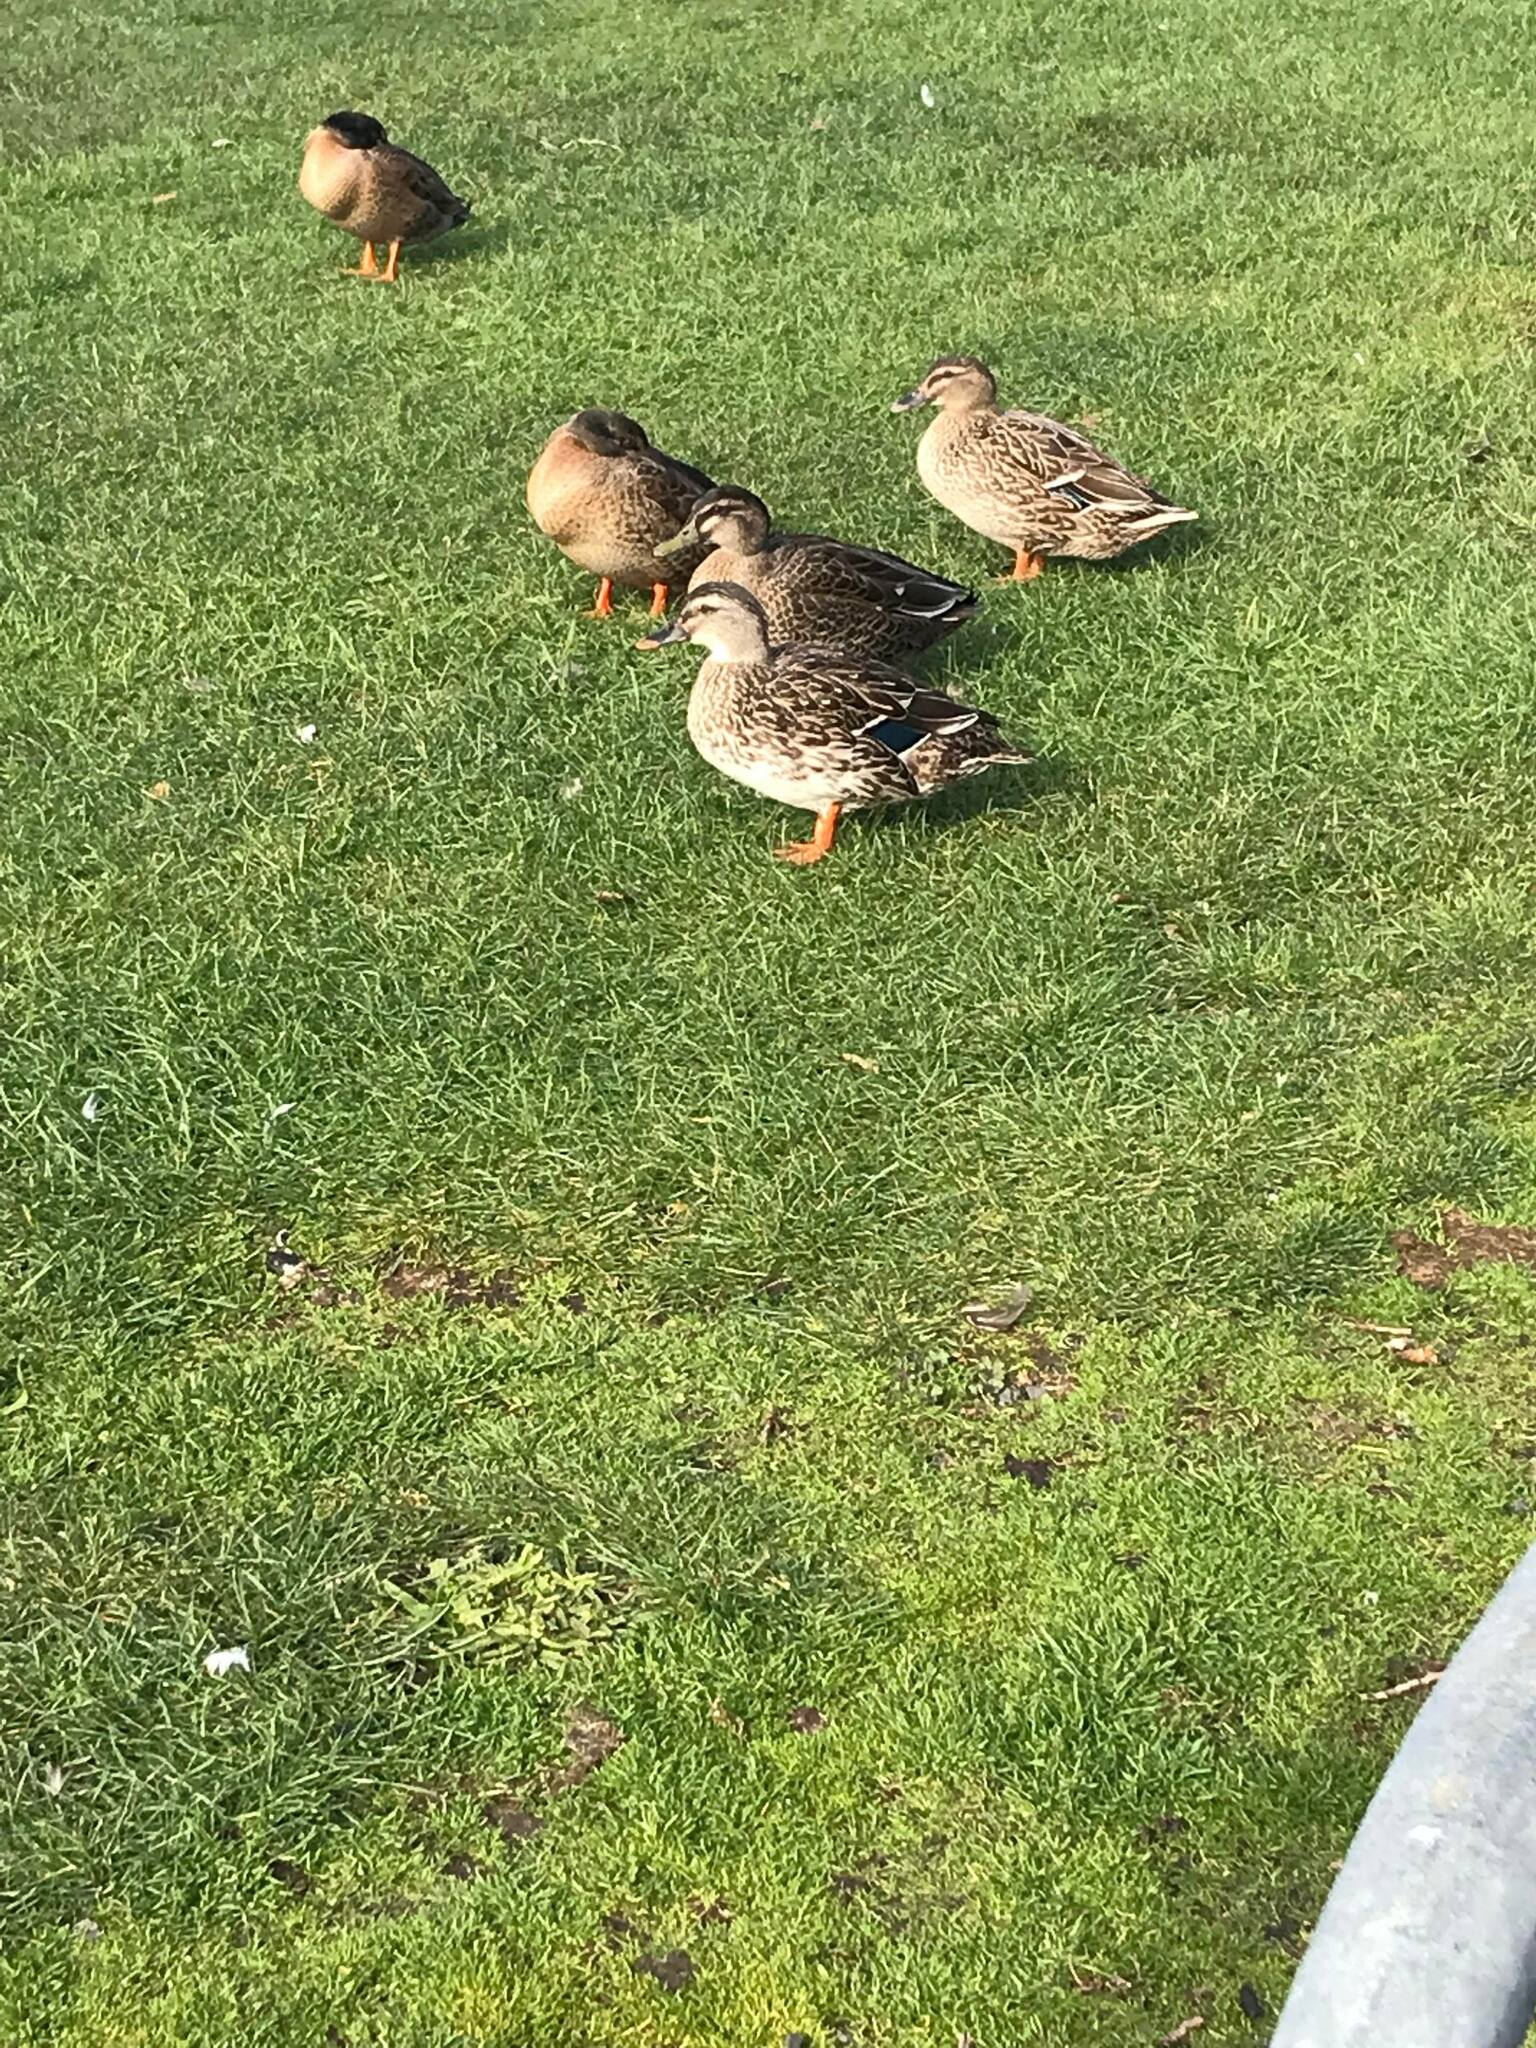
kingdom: Animalia
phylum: Chordata
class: Aves
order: Anseriformes
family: Anatidae
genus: Anas
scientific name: Anas
